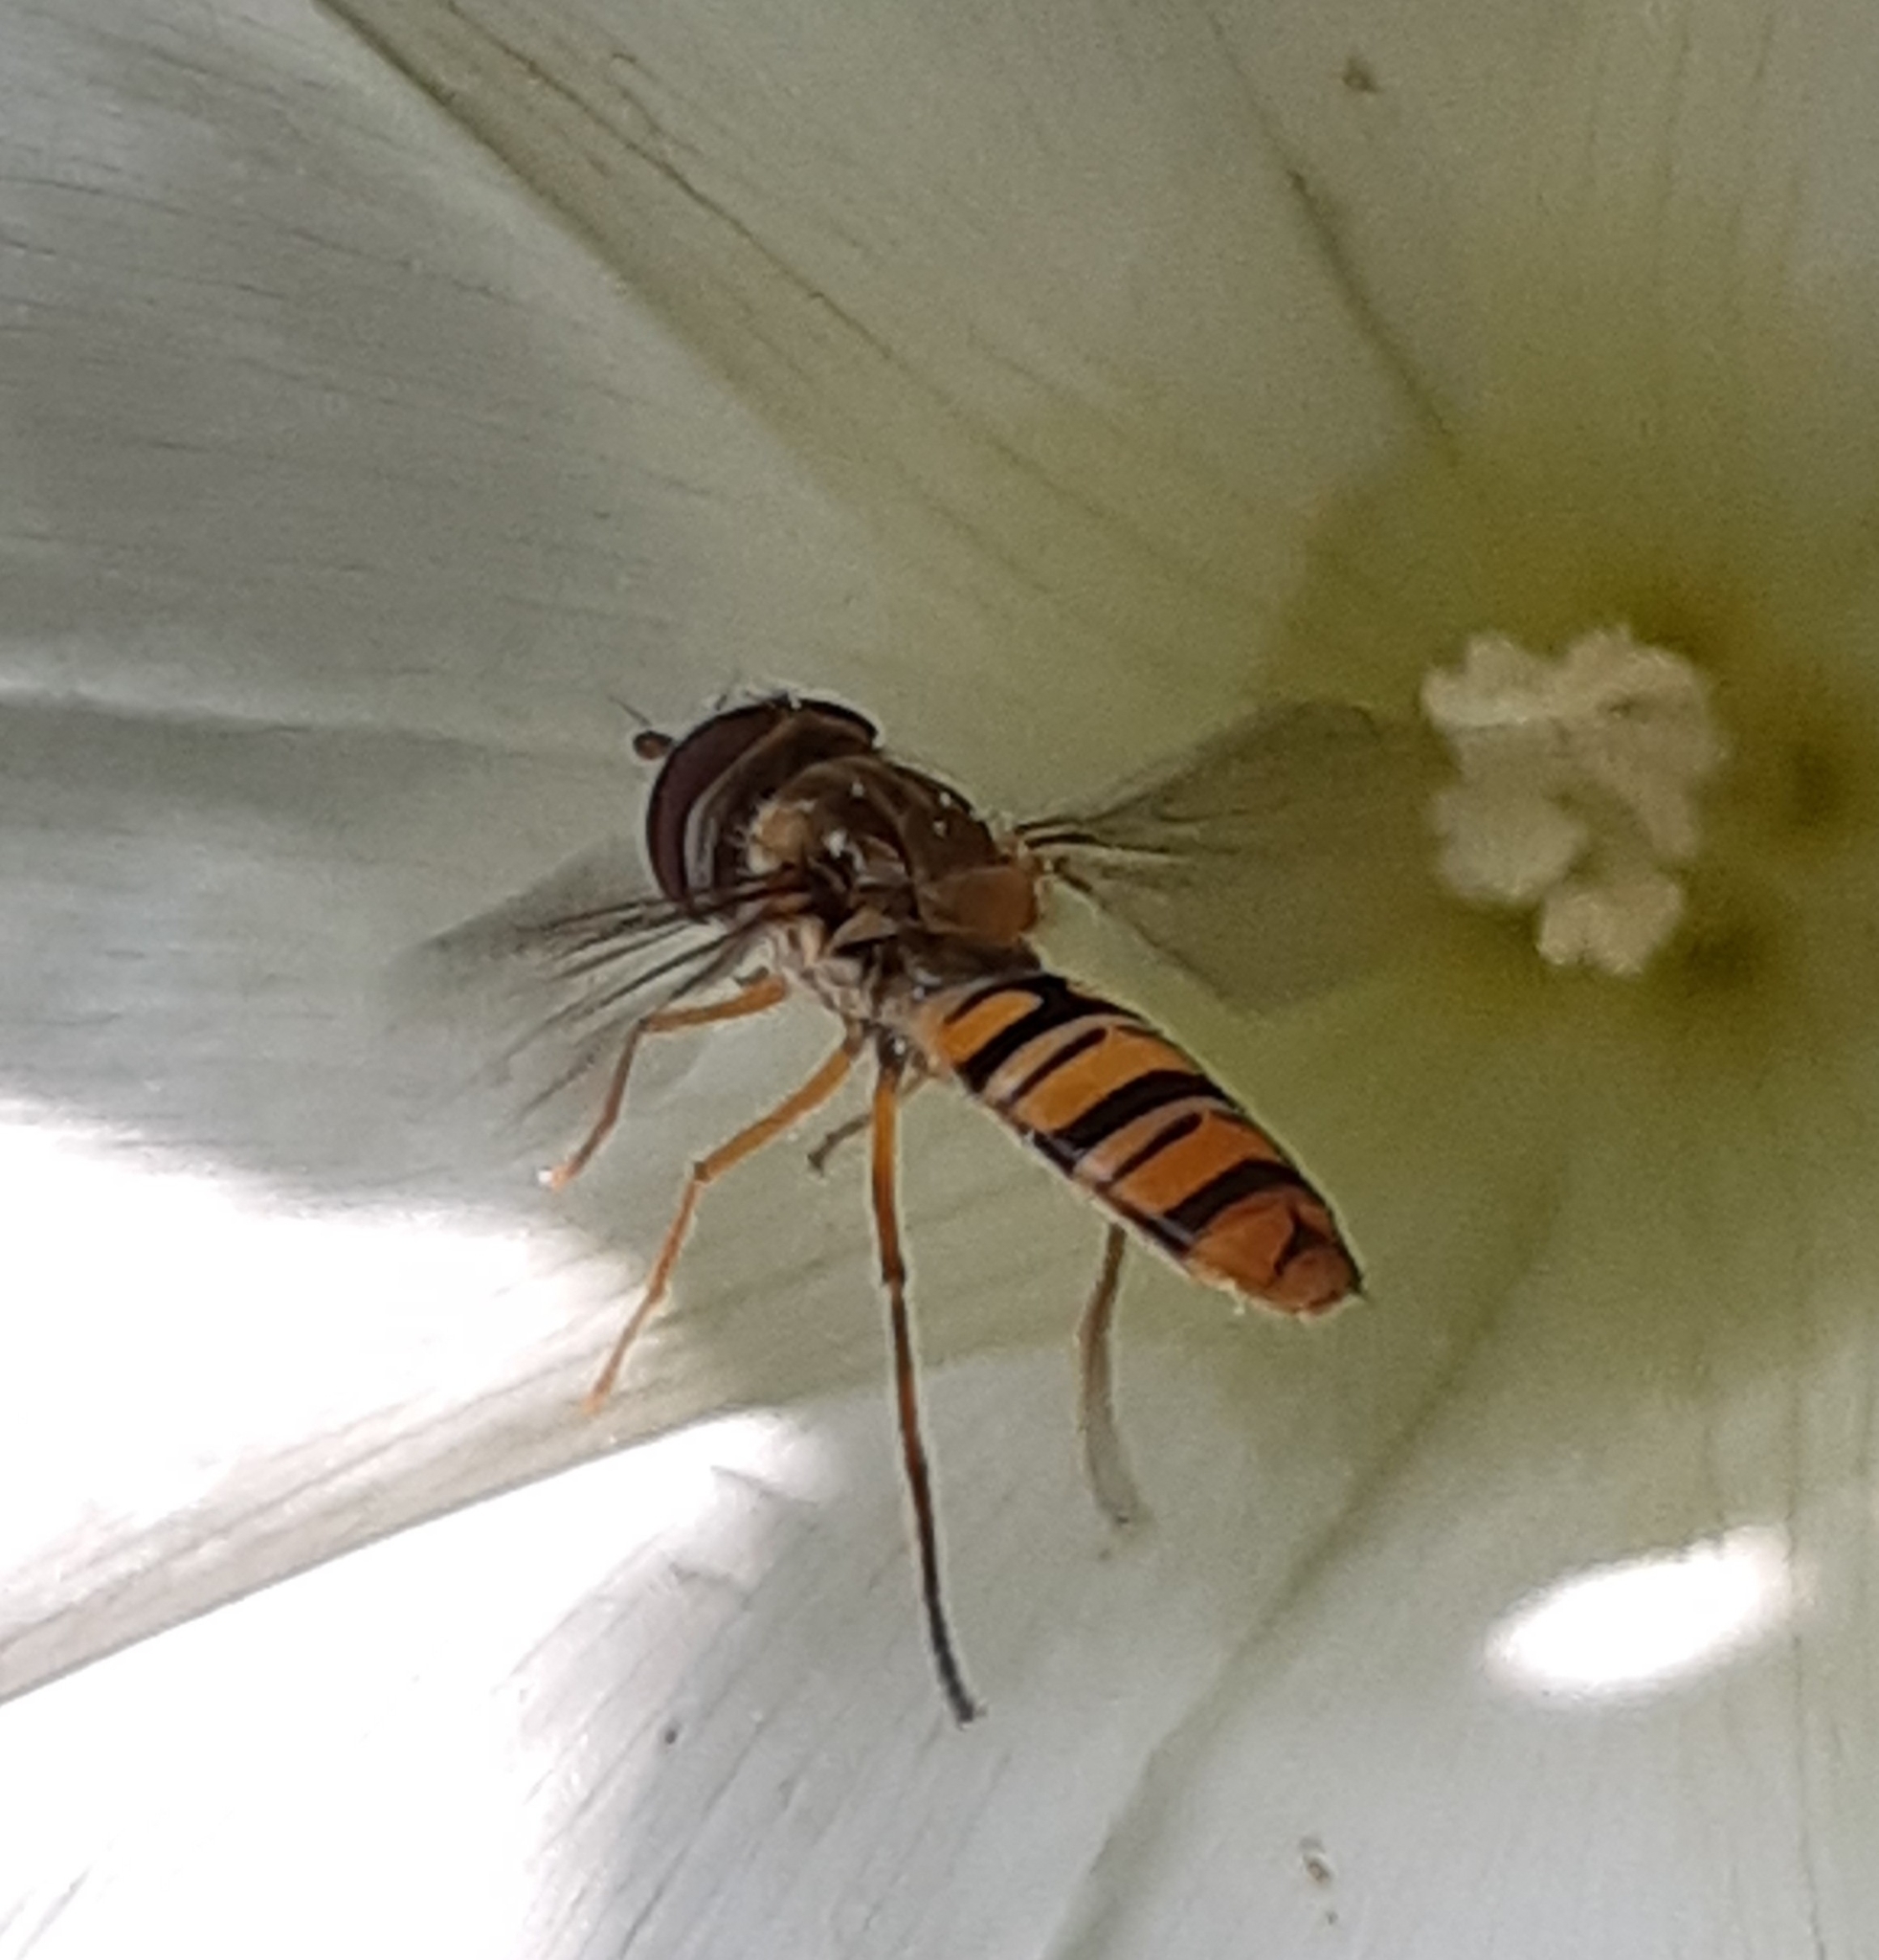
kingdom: Animalia
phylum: Arthropoda
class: Insecta
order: Diptera
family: Syrphidae
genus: Episyrphus
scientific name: Episyrphus balteatus
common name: Marmalade hoverfly
